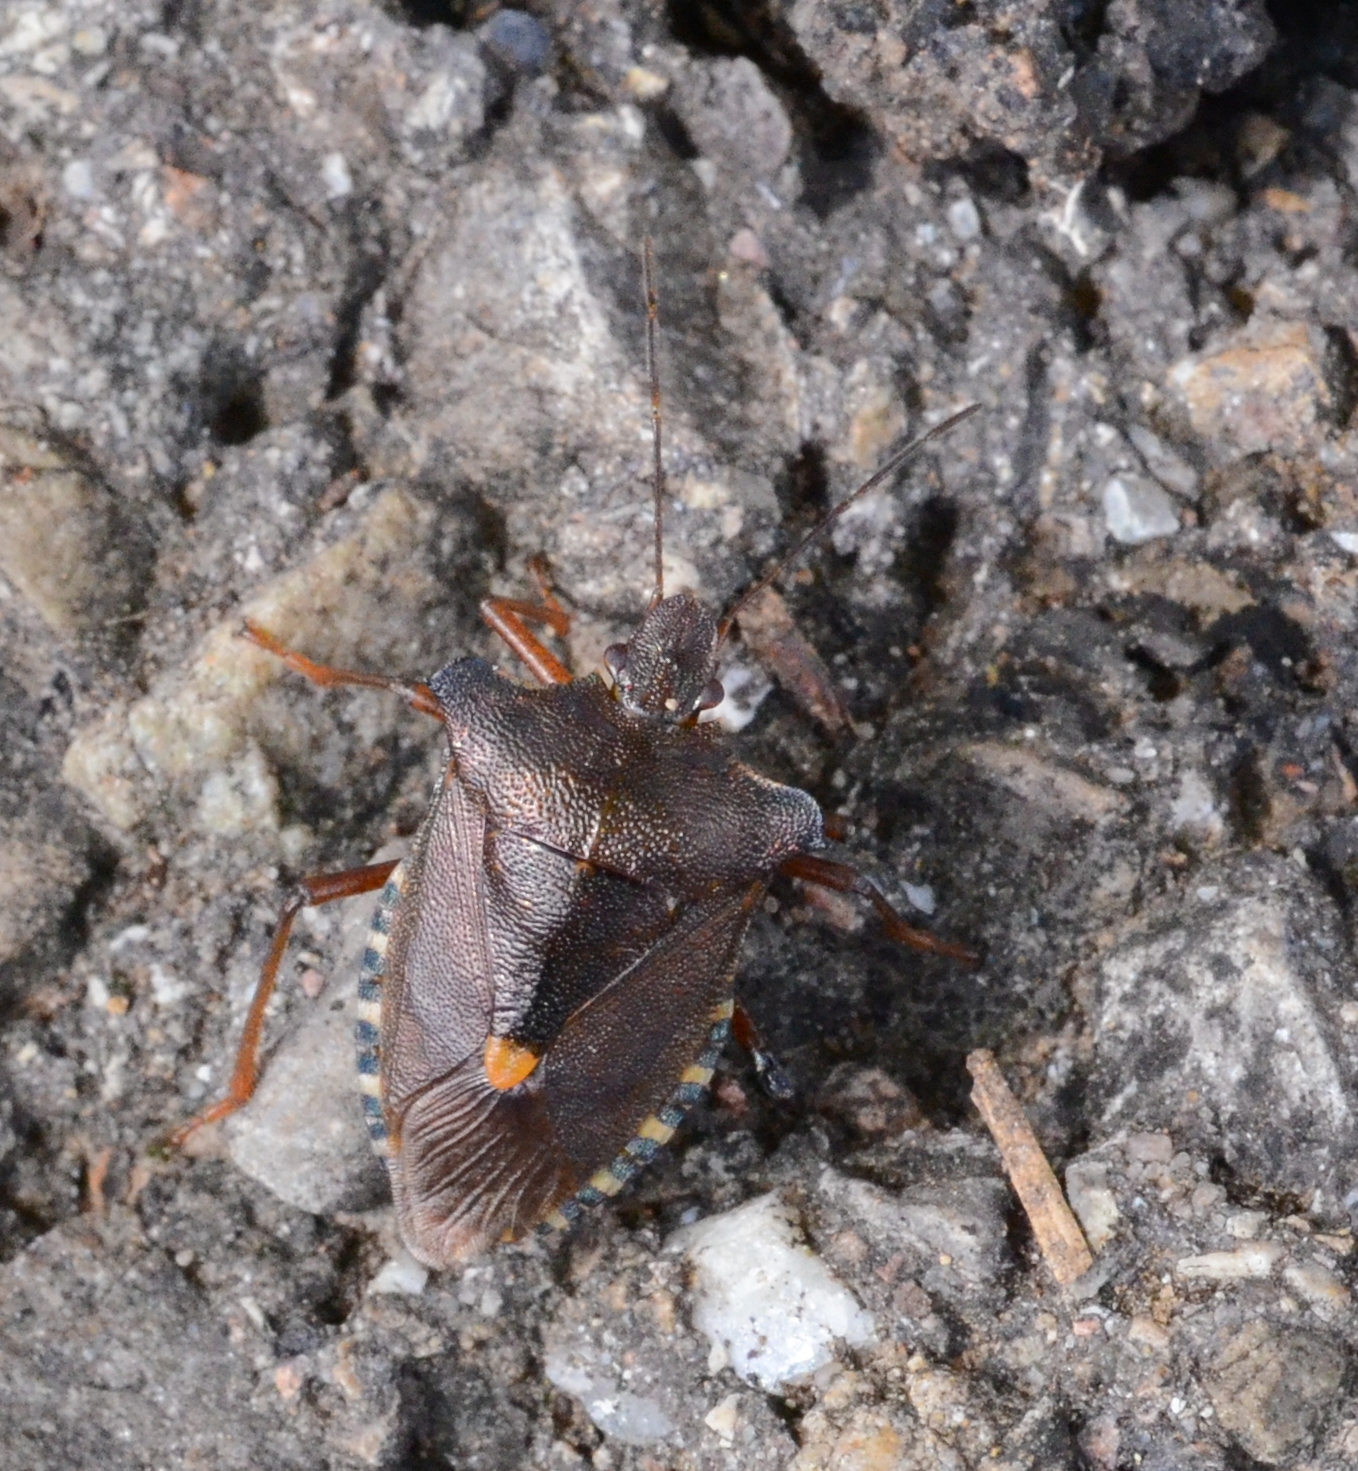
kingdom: Animalia
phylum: Arthropoda
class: Insecta
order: Hemiptera
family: Pentatomidae
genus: Pentatoma
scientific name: Pentatoma rufipes
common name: Forest bug
